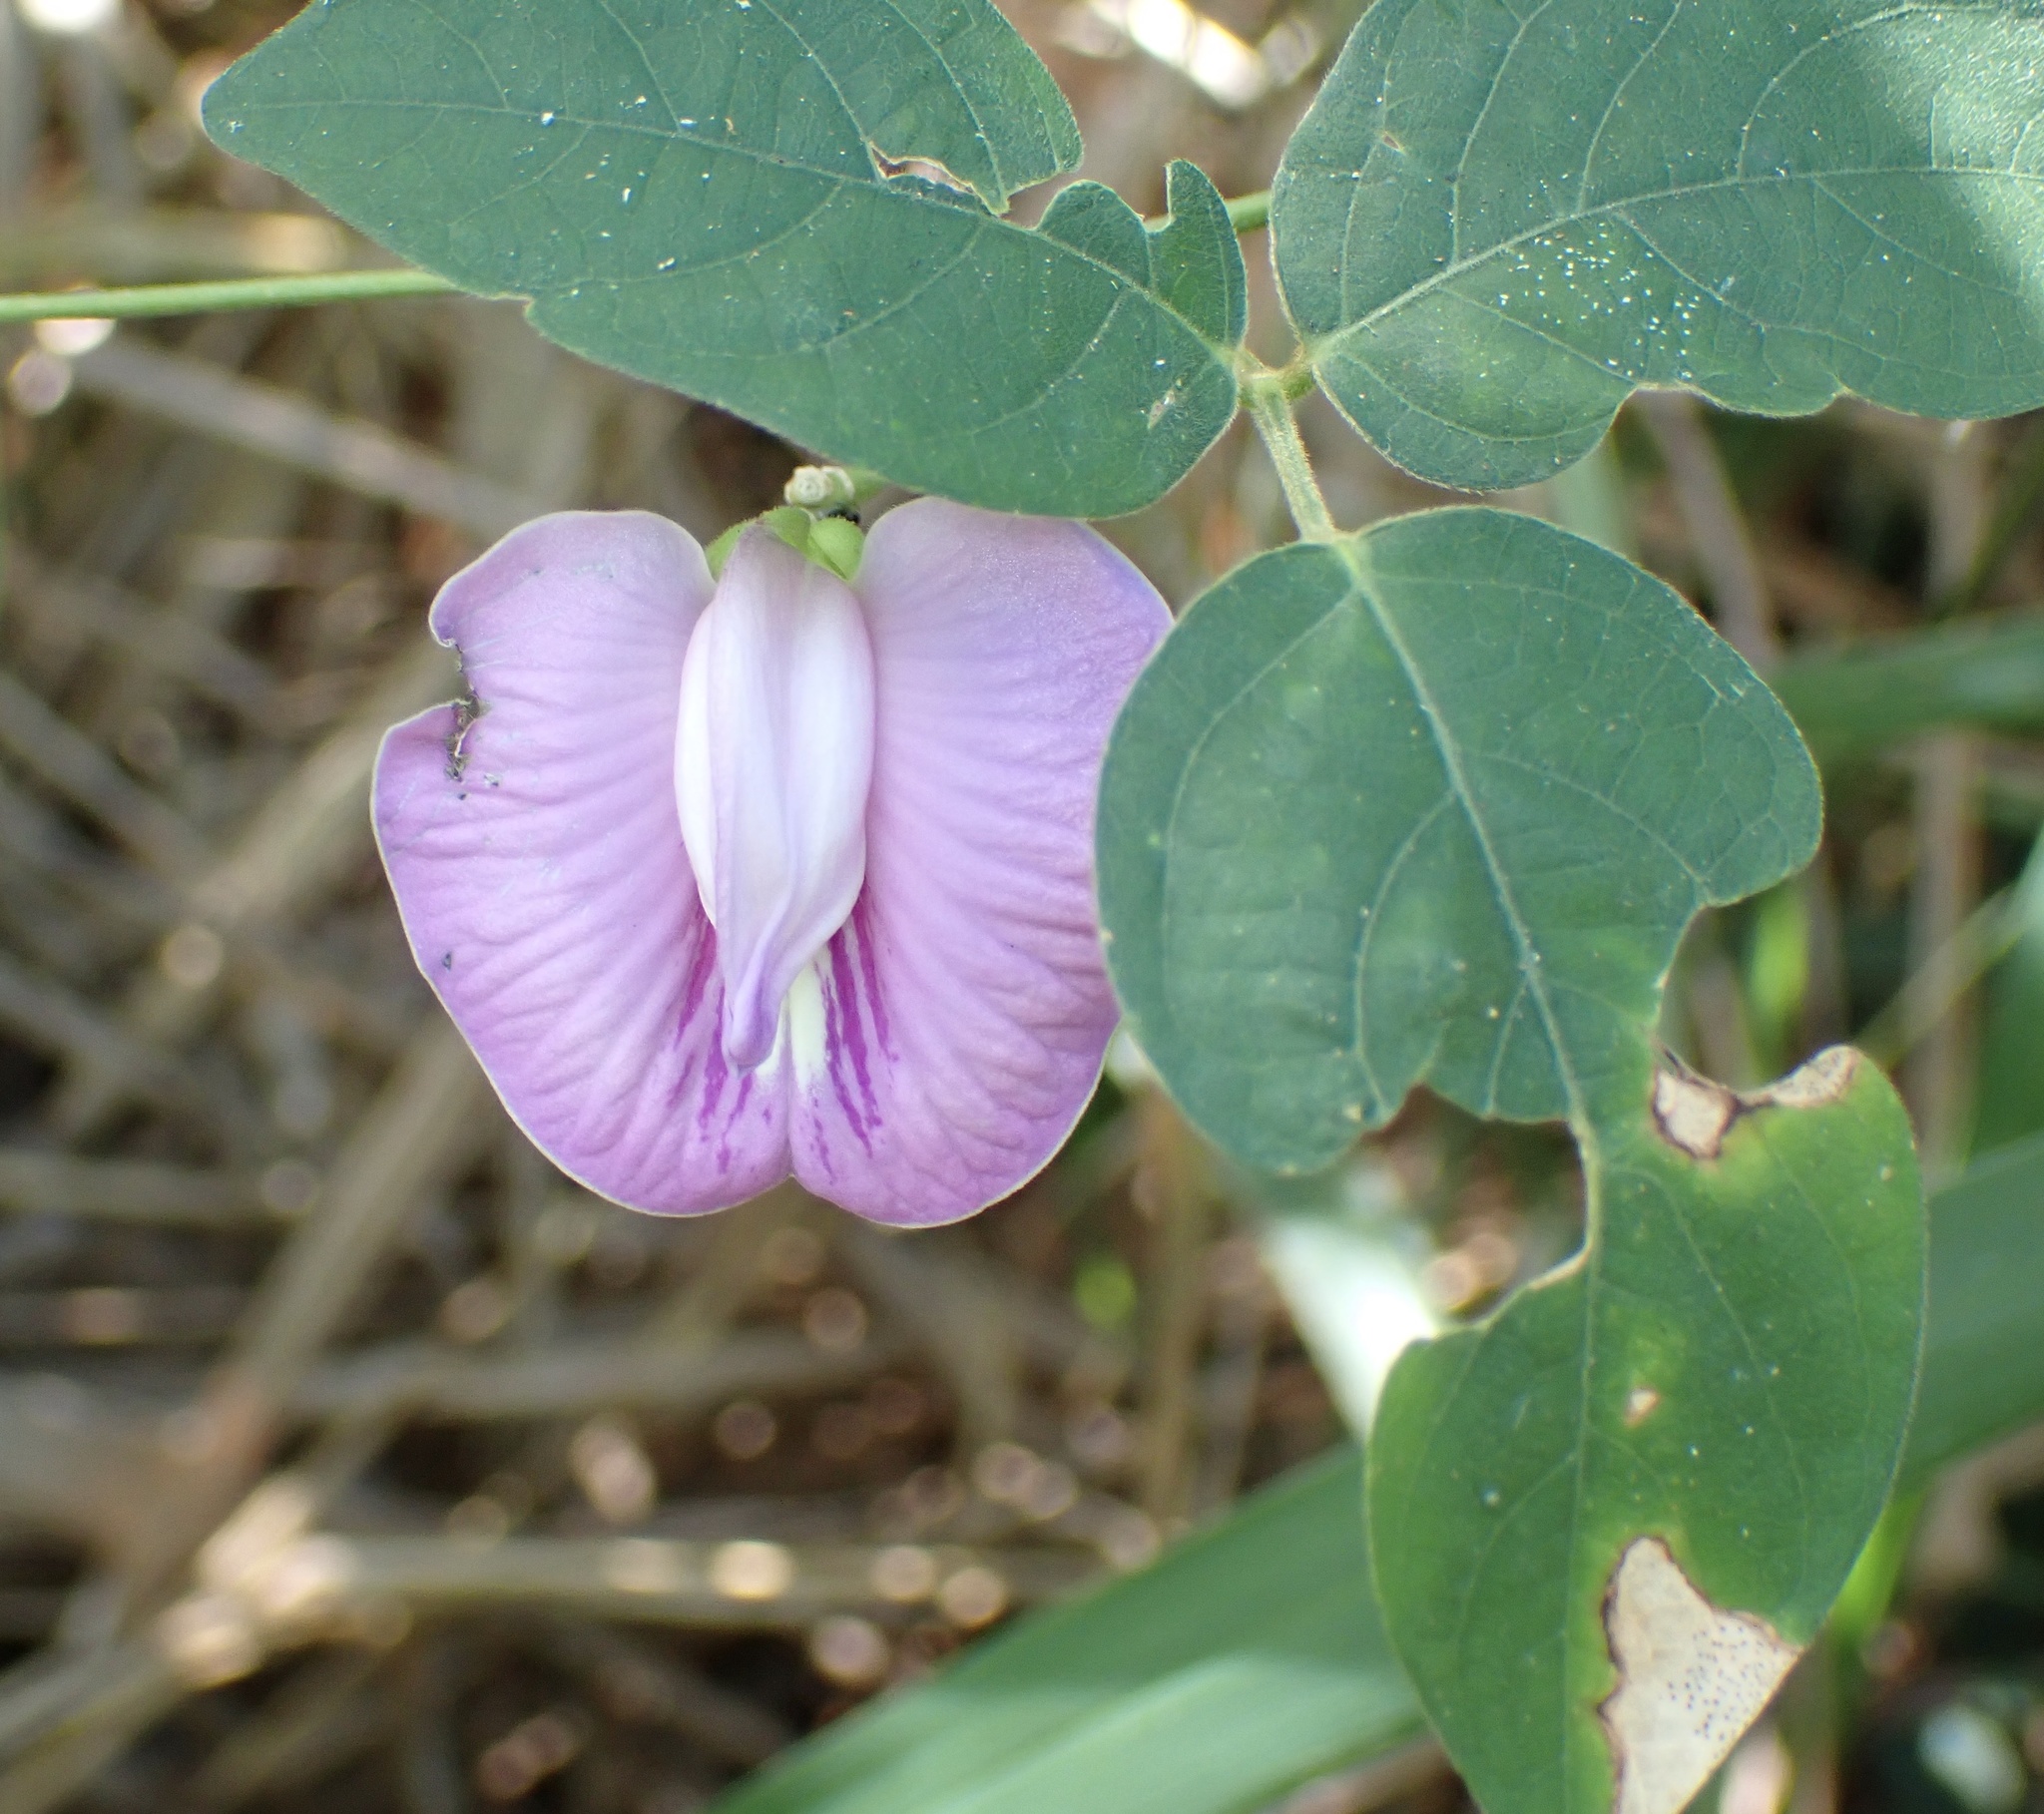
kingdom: Plantae
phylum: Tracheophyta
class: Magnoliopsida
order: Fabales
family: Fabaceae
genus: Centrosema
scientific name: Centrosema virginianum
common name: Butterfly-pea
